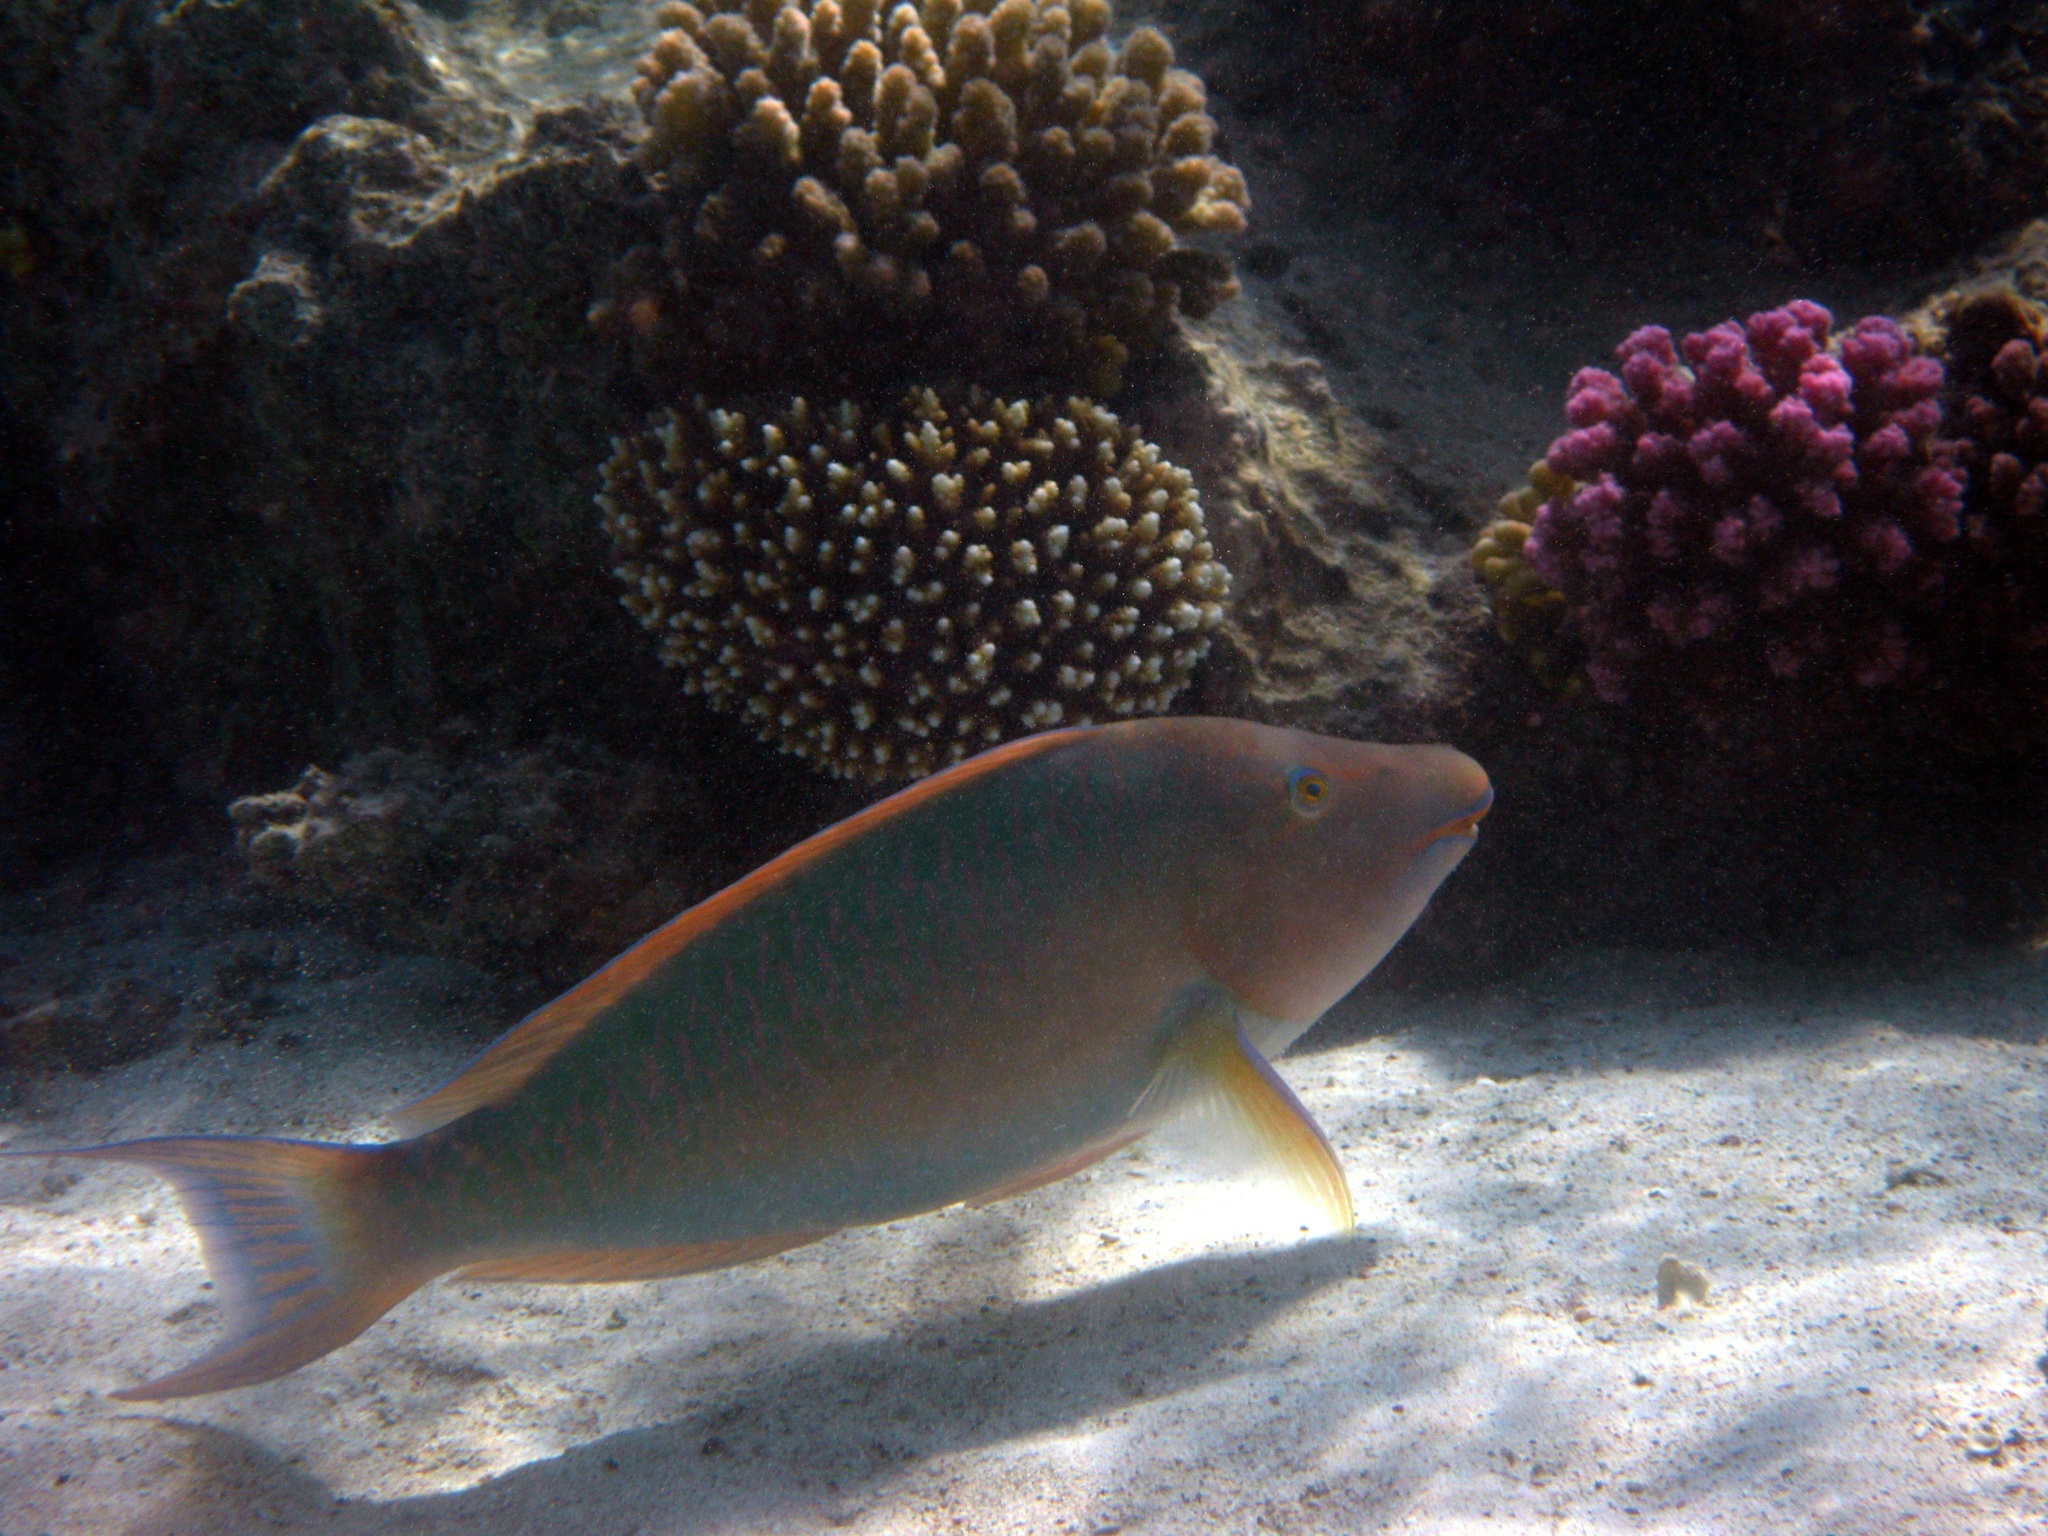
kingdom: Animalia
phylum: Chordata
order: Perciformes
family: Scaridae
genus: Hipposcarus
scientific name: Hipposcarus harid
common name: Candelamoa parrotfish
